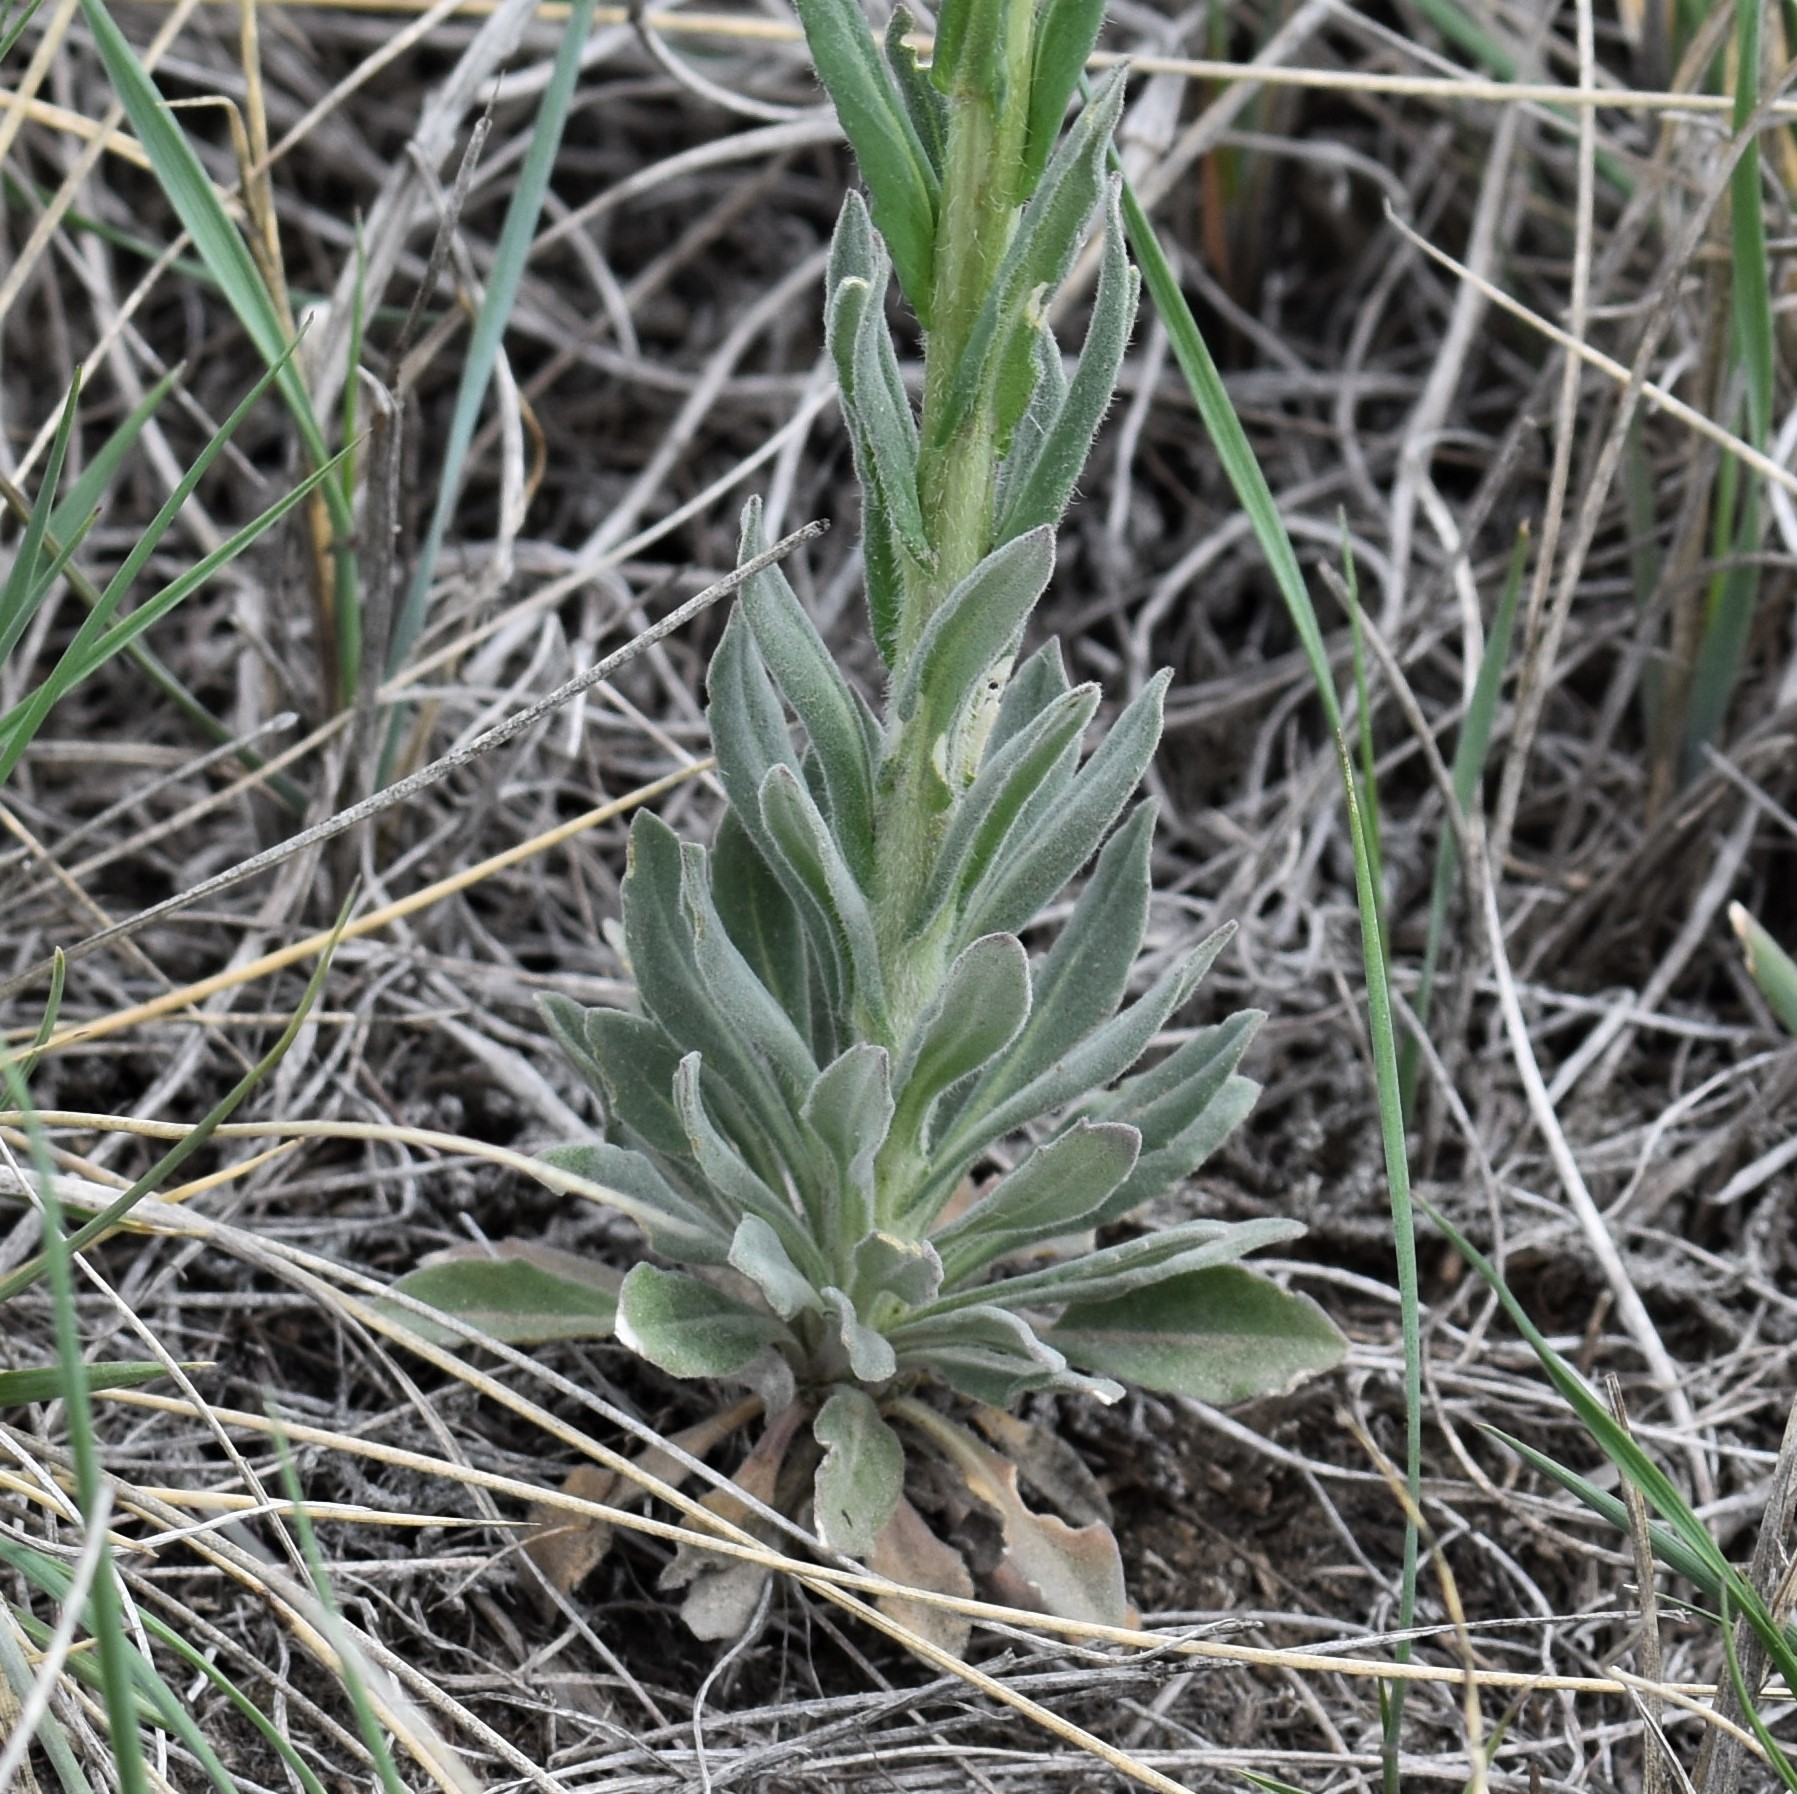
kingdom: Plantae
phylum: Tracheophyta
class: Magnoliopsida
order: Brassicales
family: Brassicaceae
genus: Boechera
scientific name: Boechera retrofracta
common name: Dangling suncress
